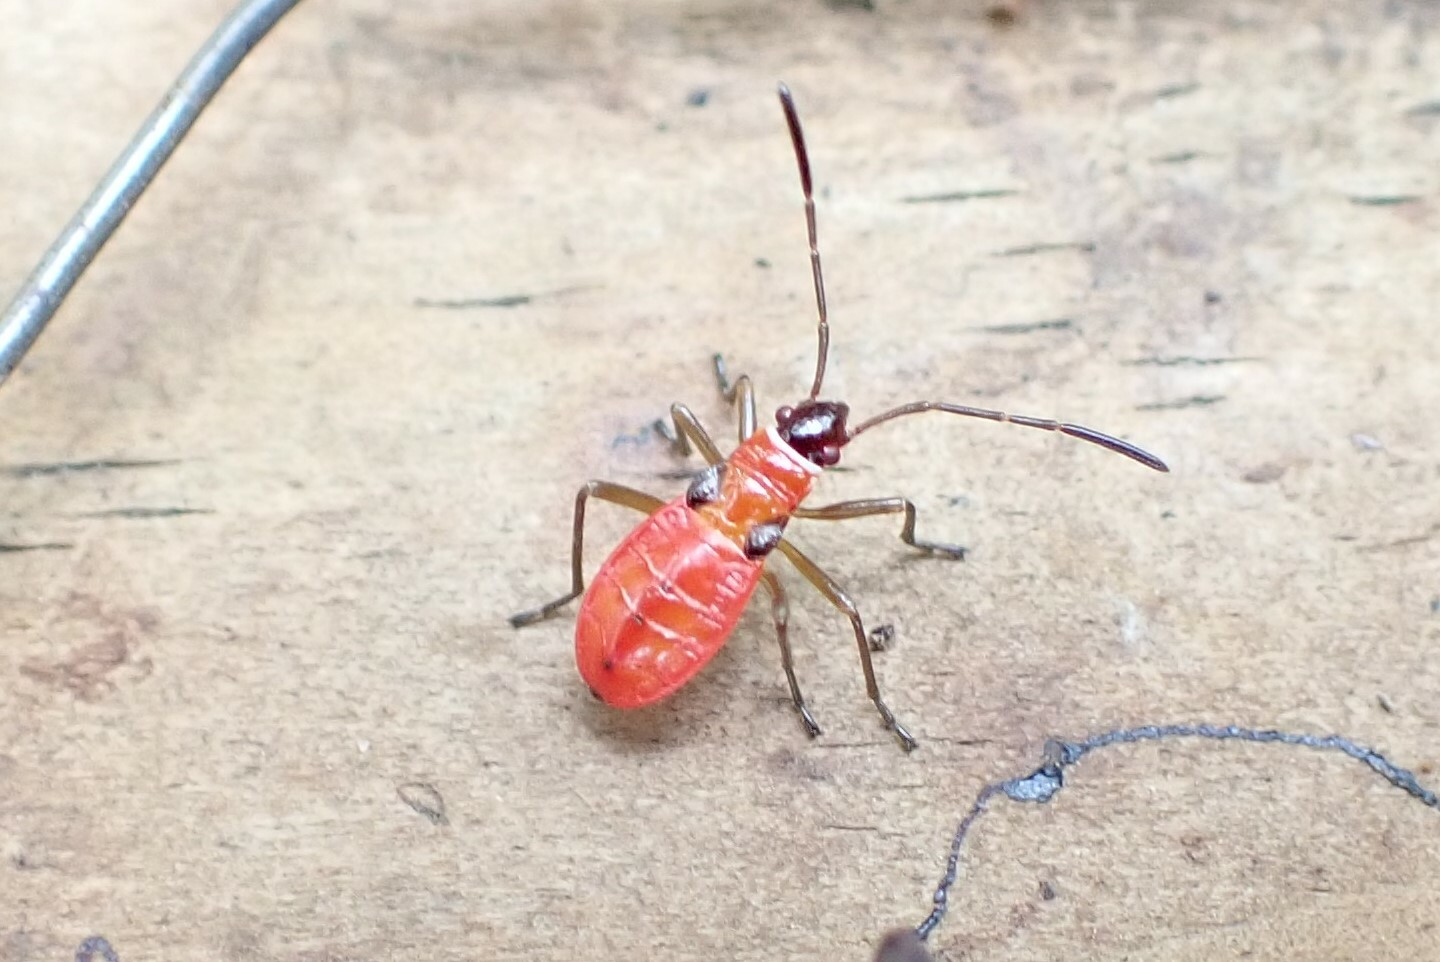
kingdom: Animalia
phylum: Arthropoda
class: Insecta
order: Hemiptera
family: Pyrrhocoridae
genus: Dysdercus
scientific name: Dysdercus concinnus
